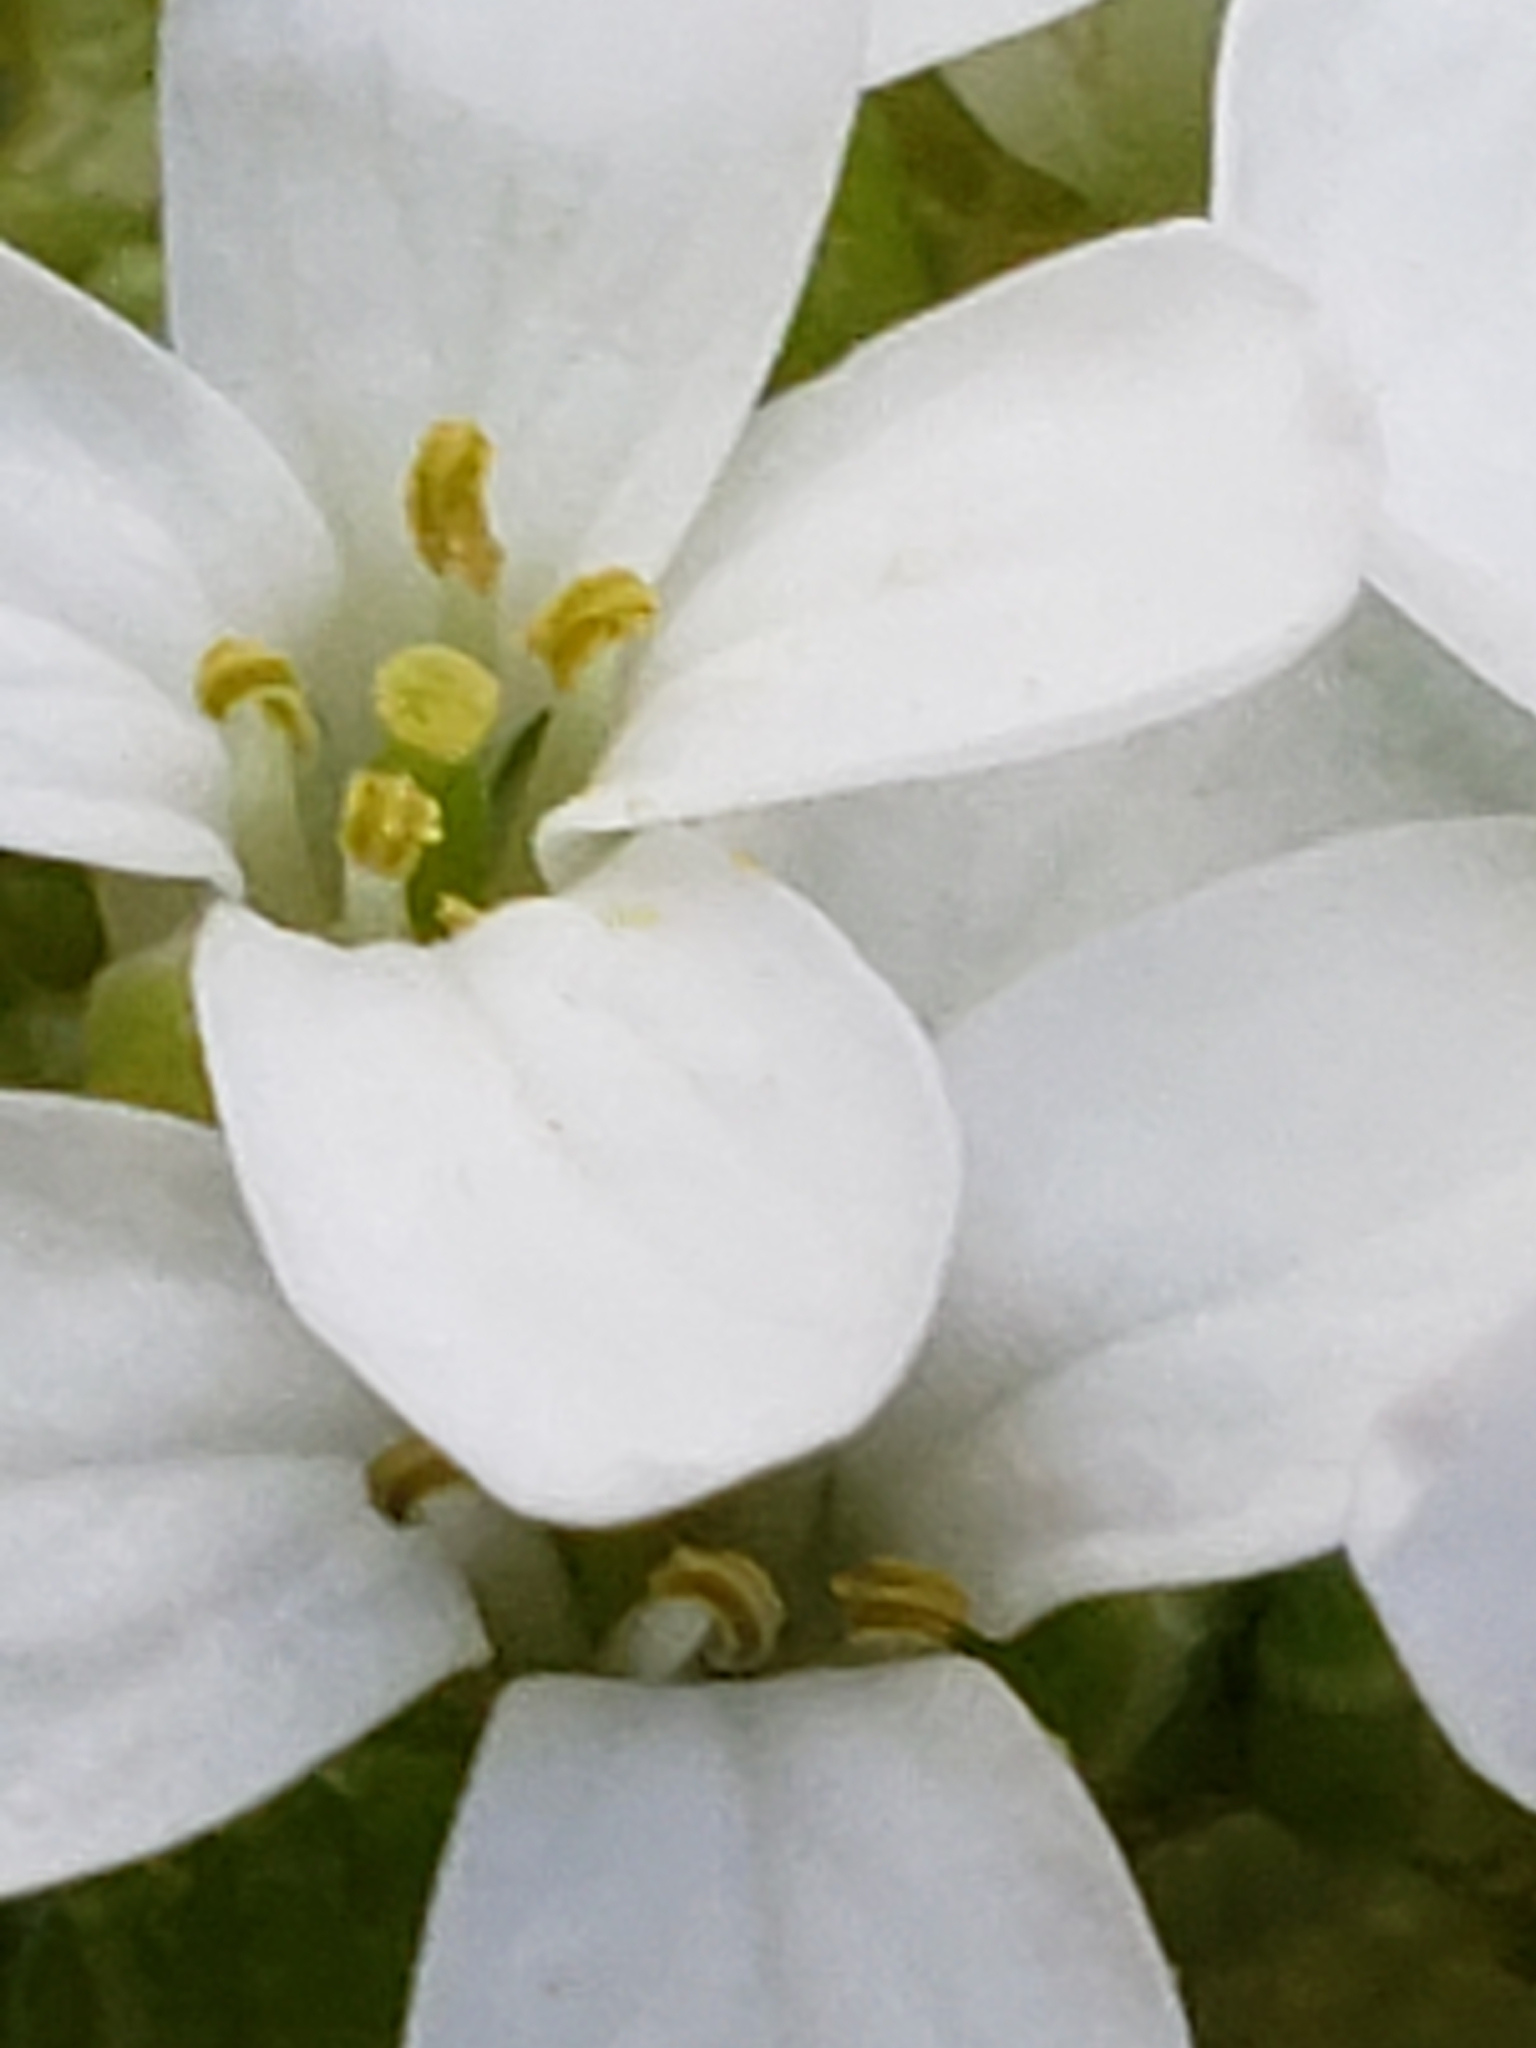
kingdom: Plantae
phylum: Tracheophyta
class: Magnoliopsida
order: Brassicales
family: Brassicaceae
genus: Alliaria
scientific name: Alliaria petiolata
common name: Garlic mustard
